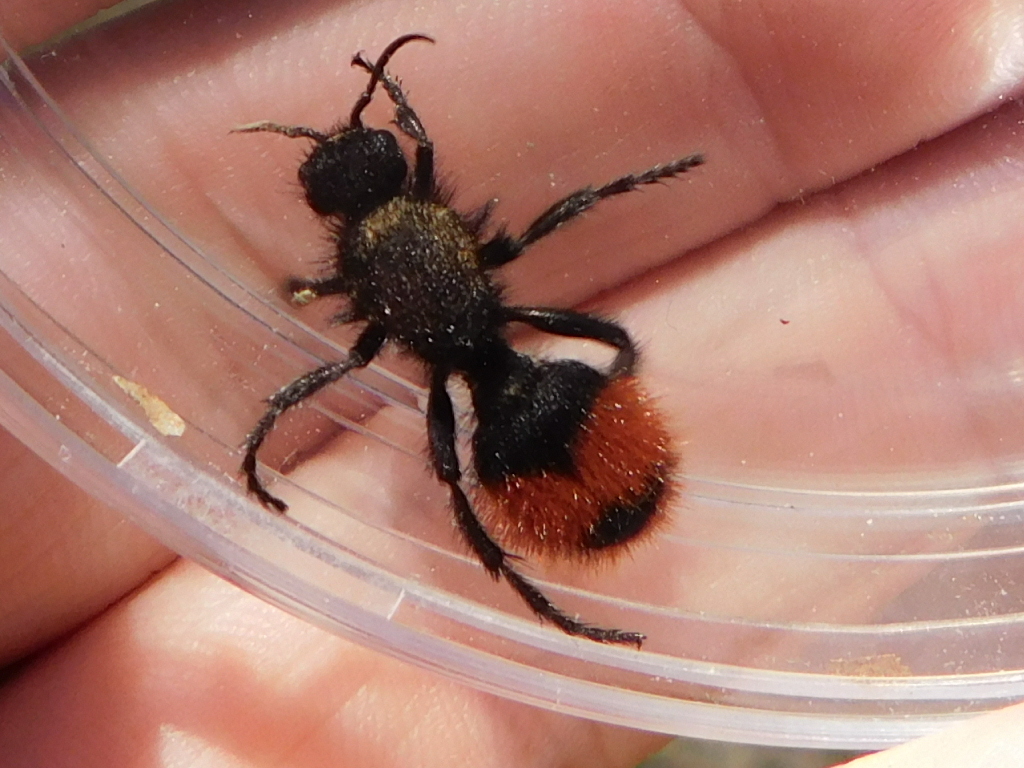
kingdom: Animalia
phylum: Arthropoda
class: Insecta
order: Hymenoptera
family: Mutillidae
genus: Dasymutilla
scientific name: Dasymutilla
